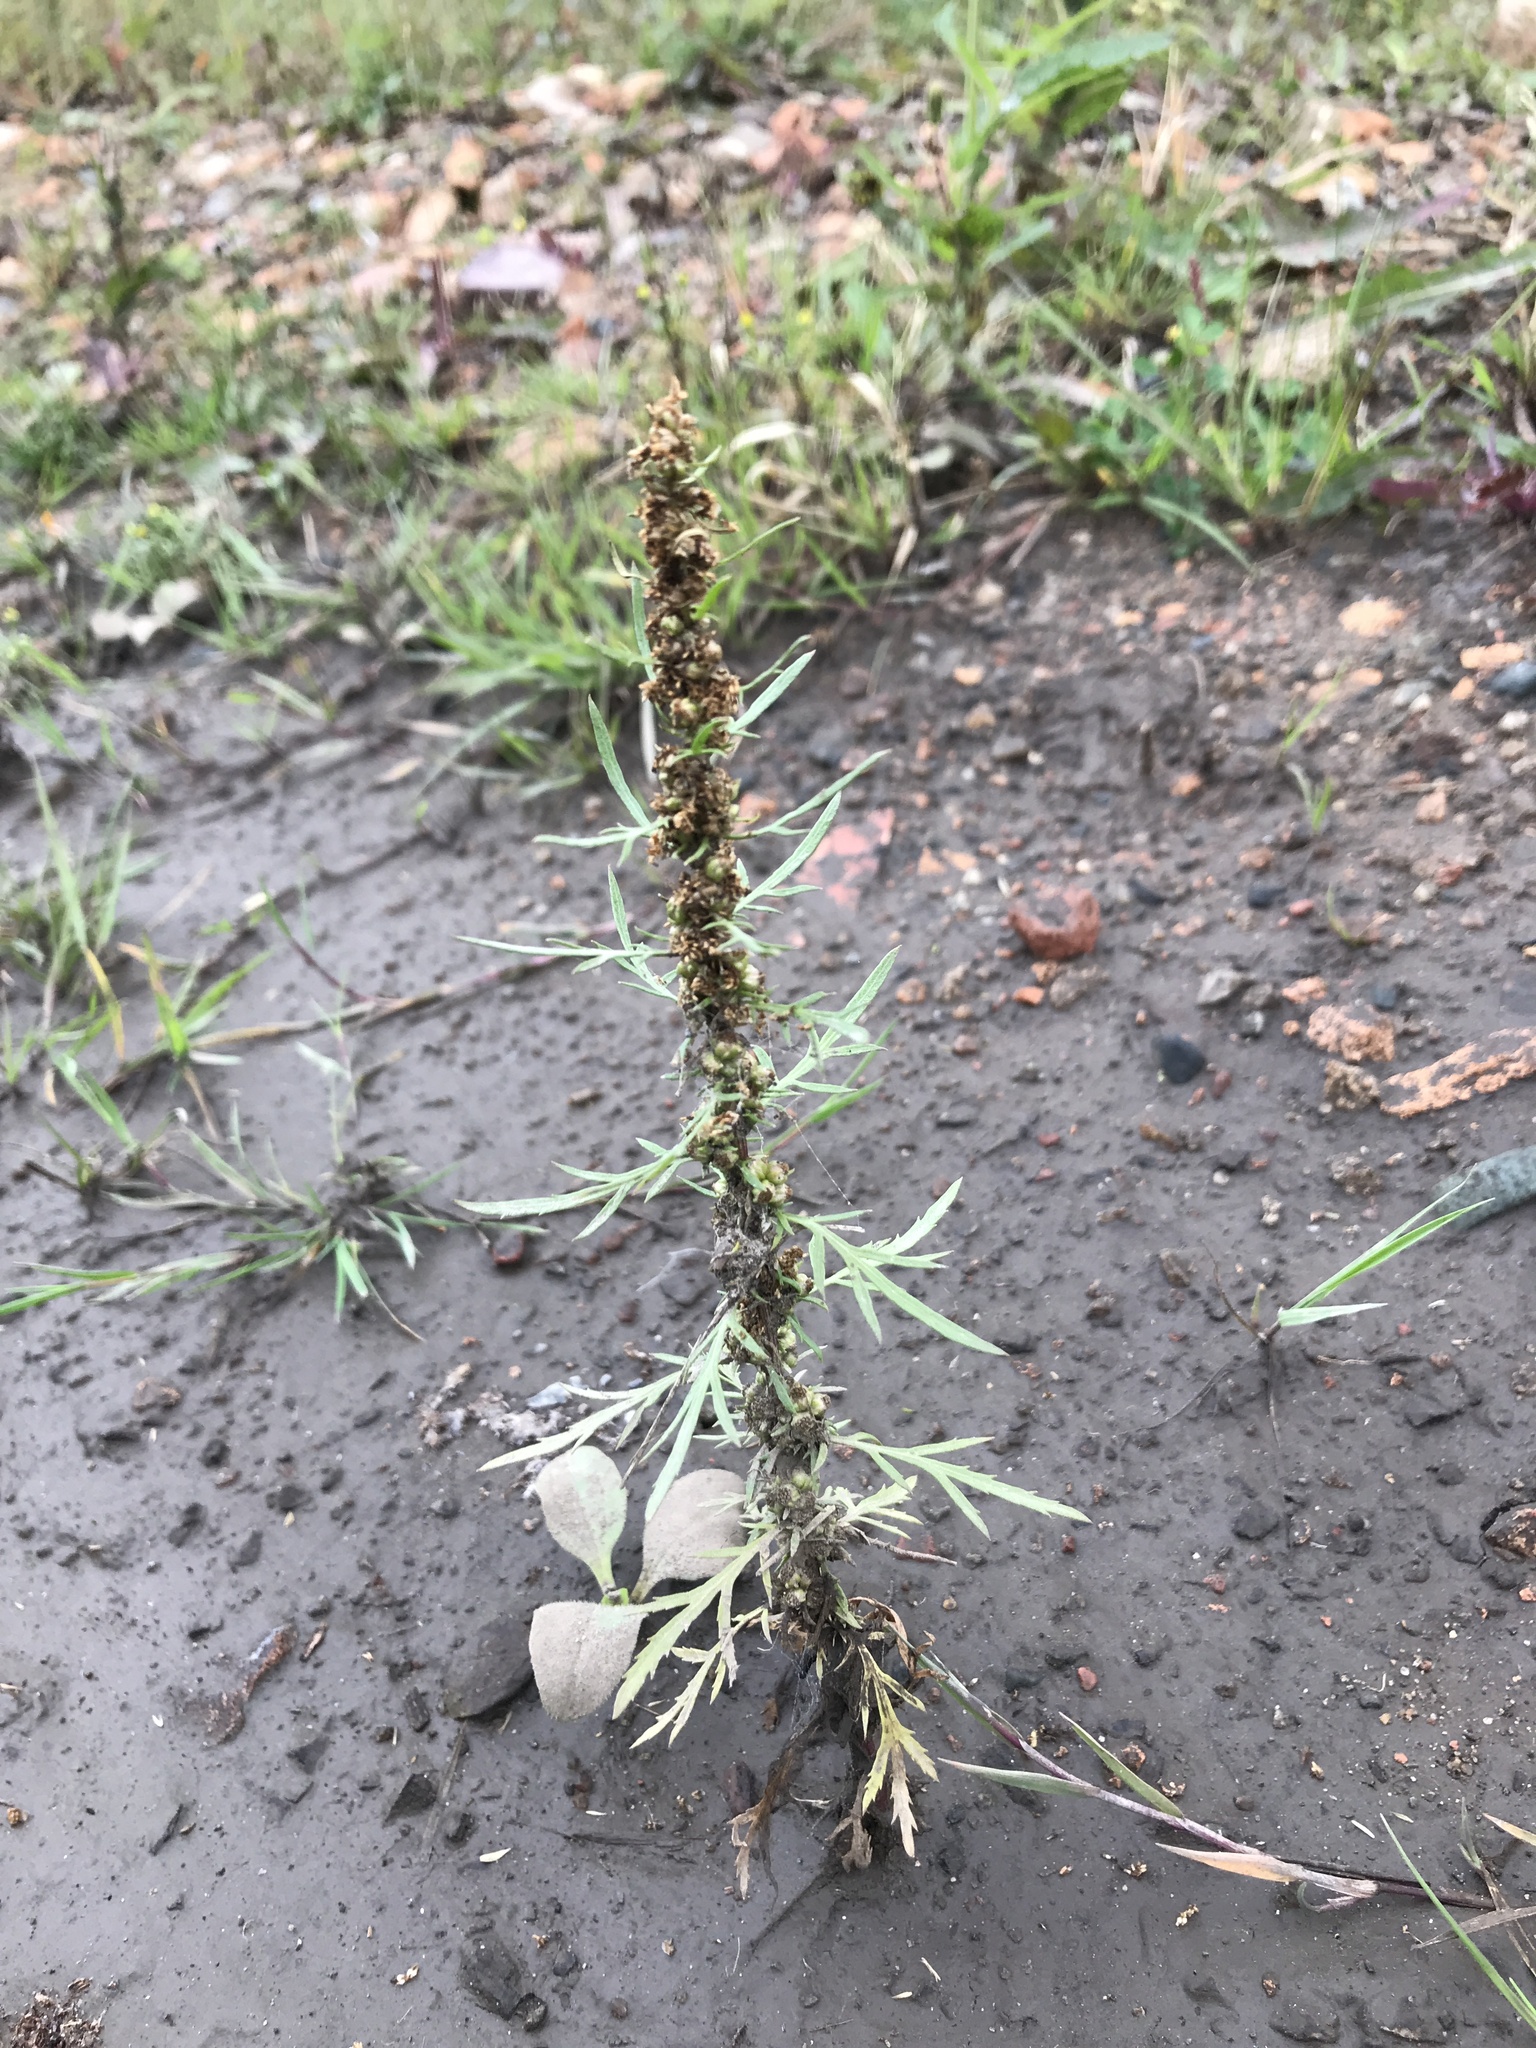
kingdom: Plantae
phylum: Tracheophyta
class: Magnoliopsida
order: Asterales
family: Asteraceae
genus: Artemisia
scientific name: Artemisia biennis
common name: Biennial wormwood
